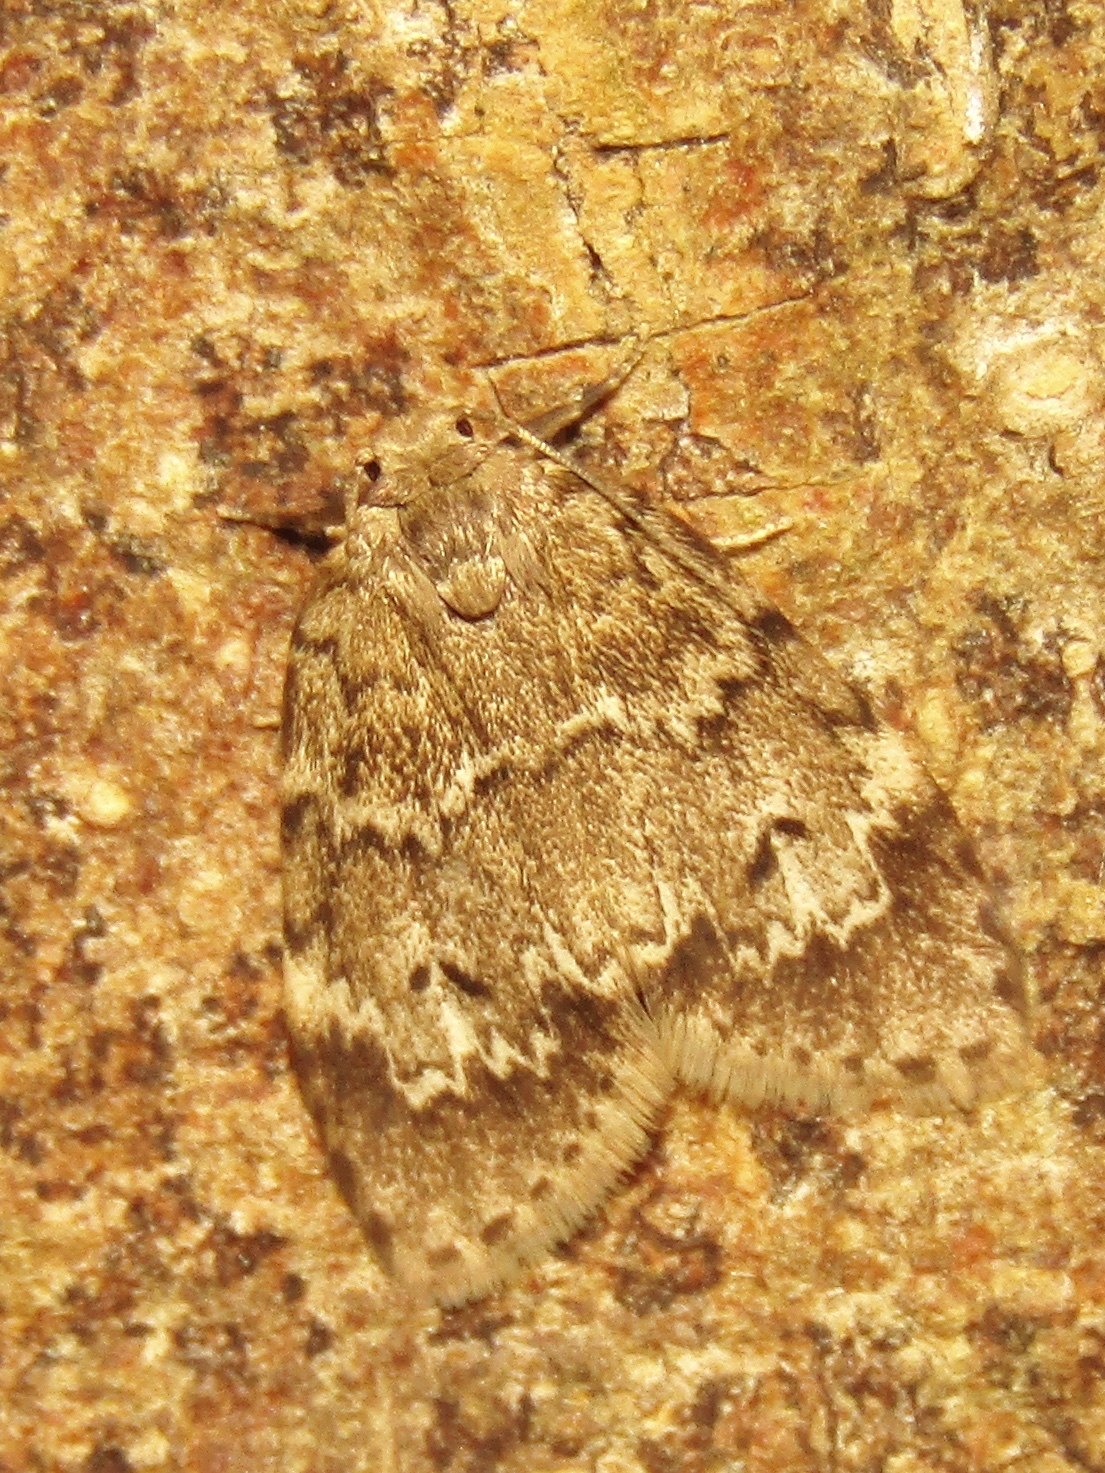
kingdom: Animalia
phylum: Arthropoda
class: Insecta
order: Lepidoptera
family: Erebidae
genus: Scaphidriotis
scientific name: Scaphidriotis xylogramma
